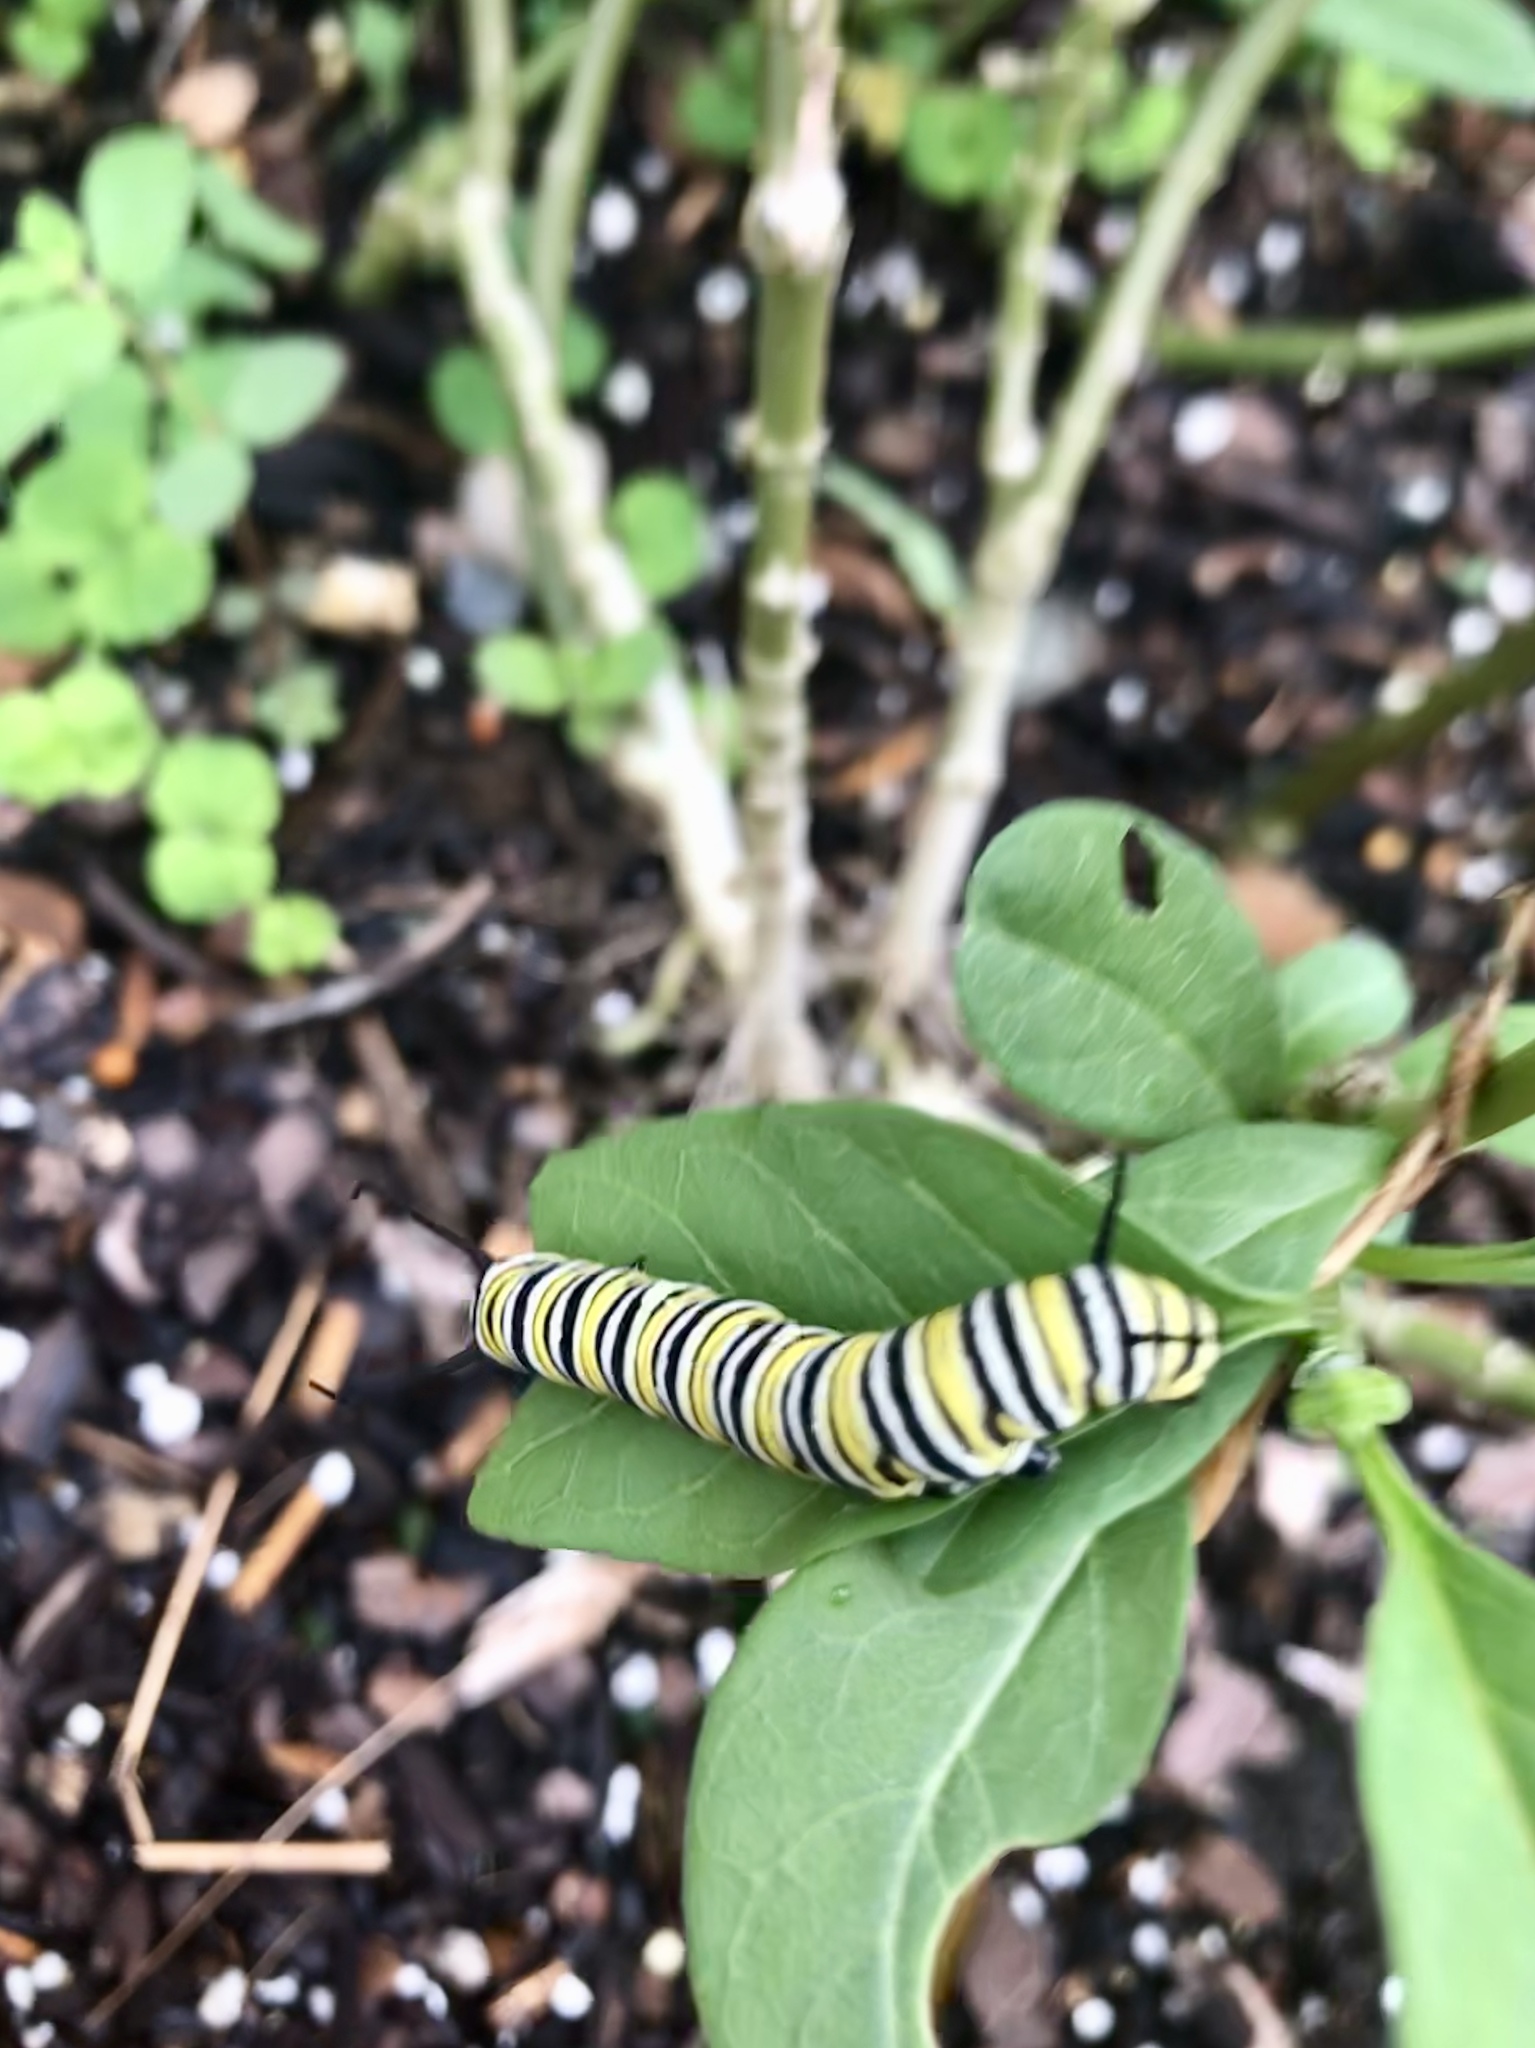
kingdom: Animalia
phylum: Arthropoda
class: Insecta
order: Lepidoptera
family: Nymphalidae
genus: Danaus
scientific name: Danaus plexippus
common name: Monarch
